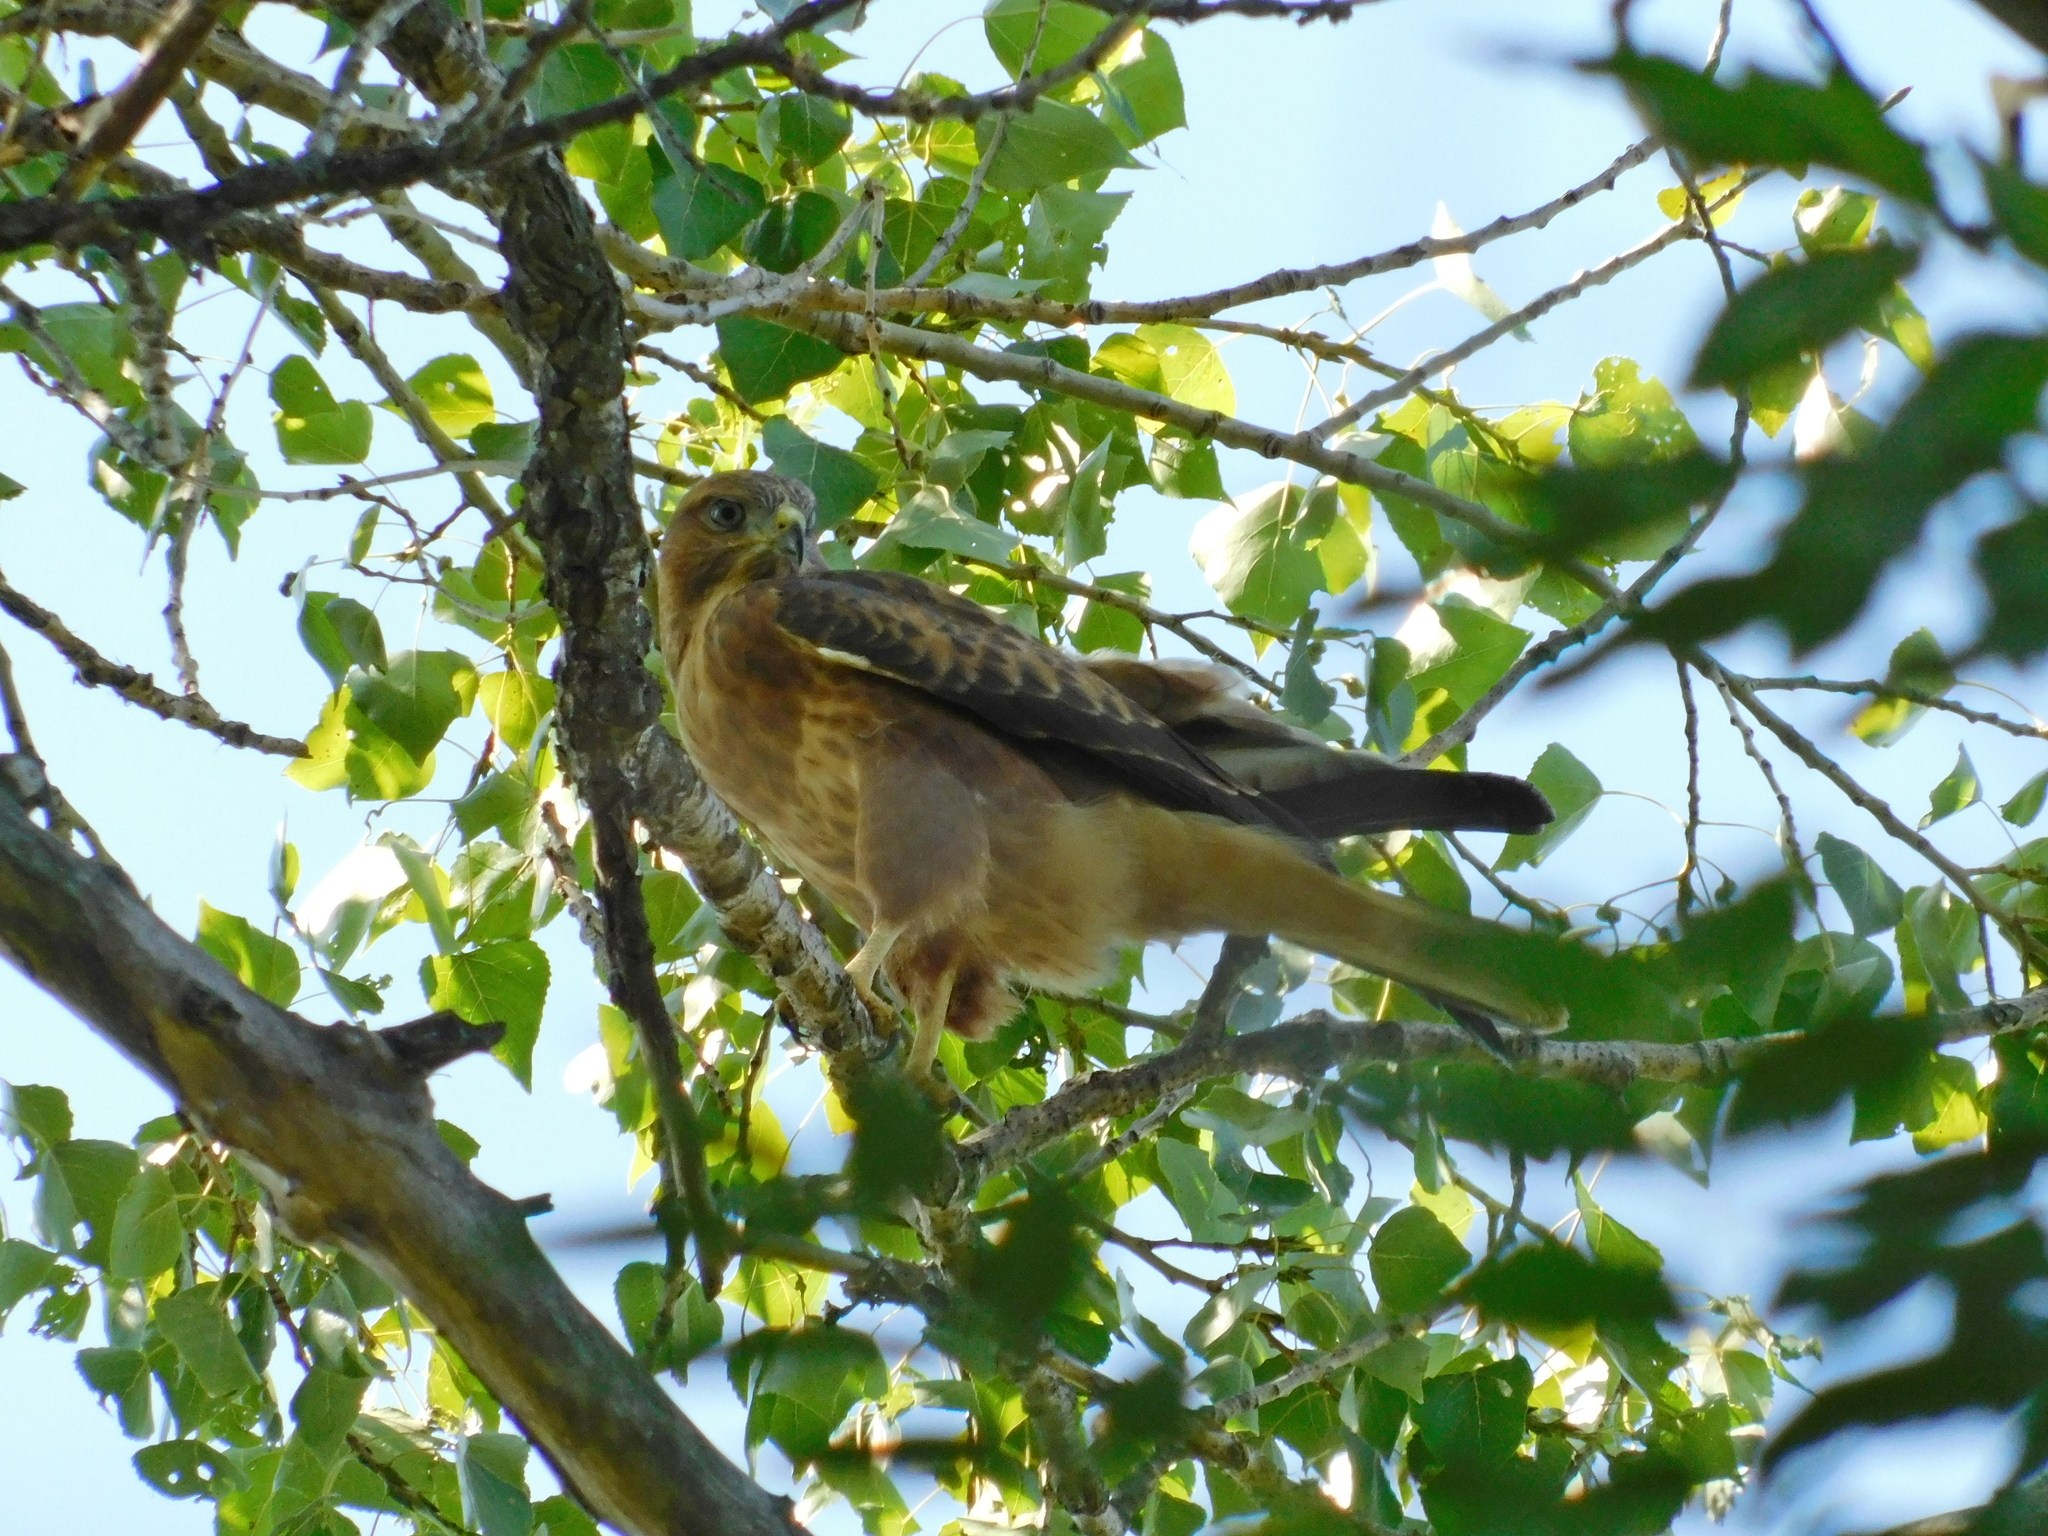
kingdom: Animalia
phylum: Chordata
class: Aves
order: Accipitriformes
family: Accipitridae
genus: Buteo
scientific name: Buteo buteo
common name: Common buzzard
